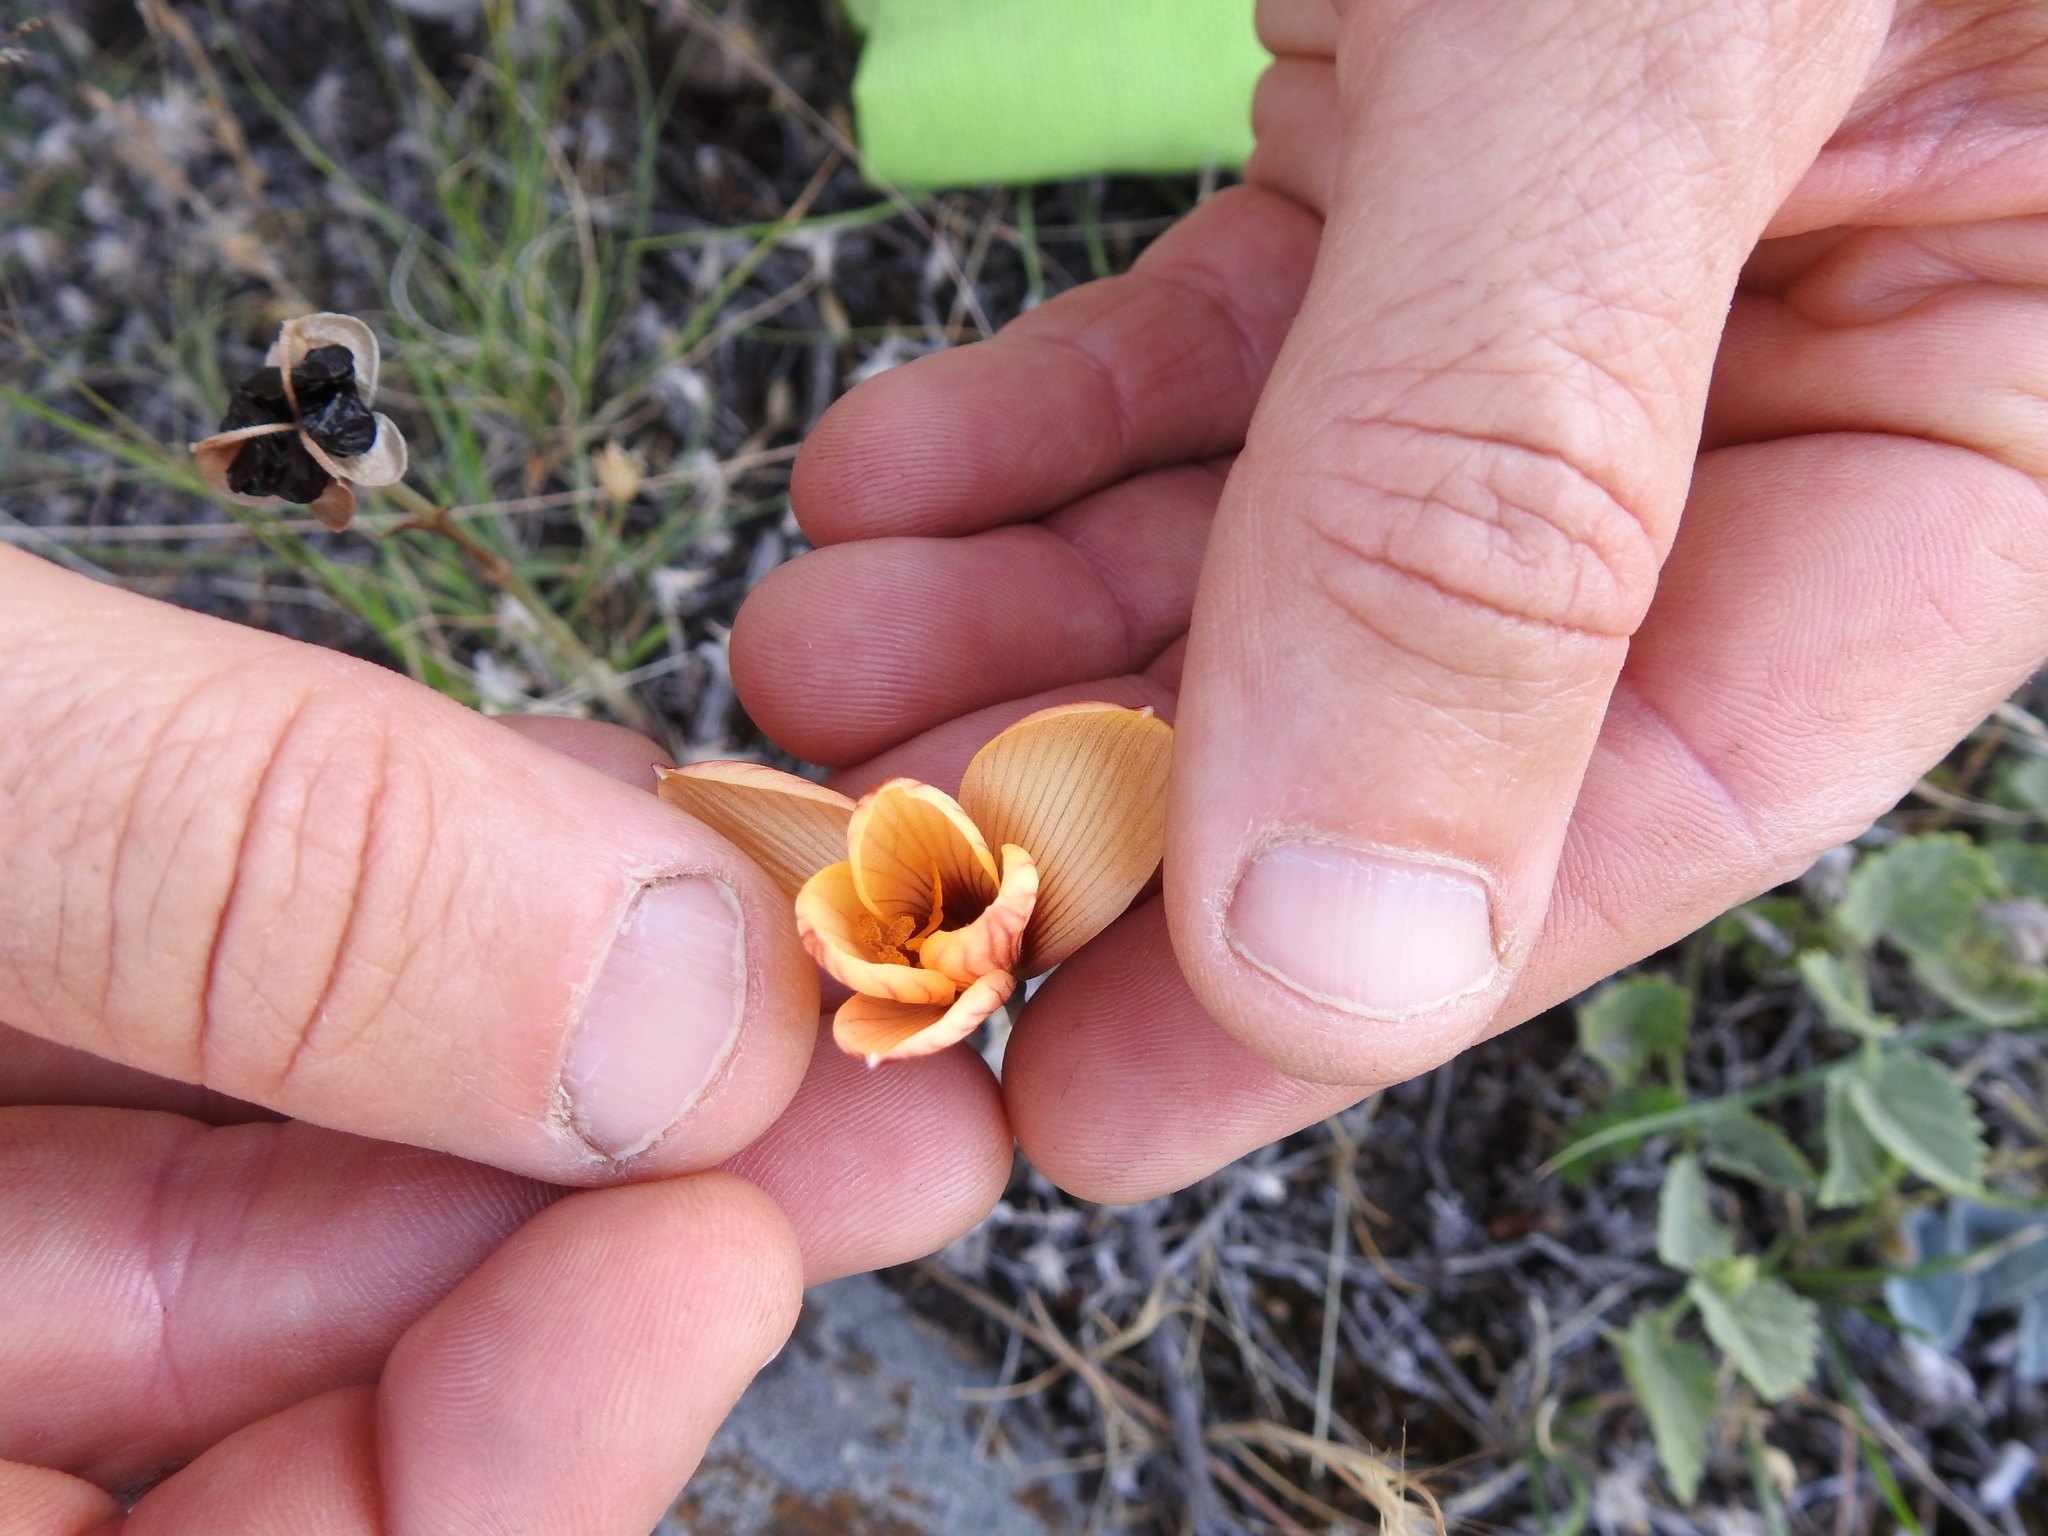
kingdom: Plantae
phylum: Tracheophyta
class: Liliopsida
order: Asparagales
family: Amaryllidaceae
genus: Zephyranthes
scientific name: Zephyranthes tubispatha
